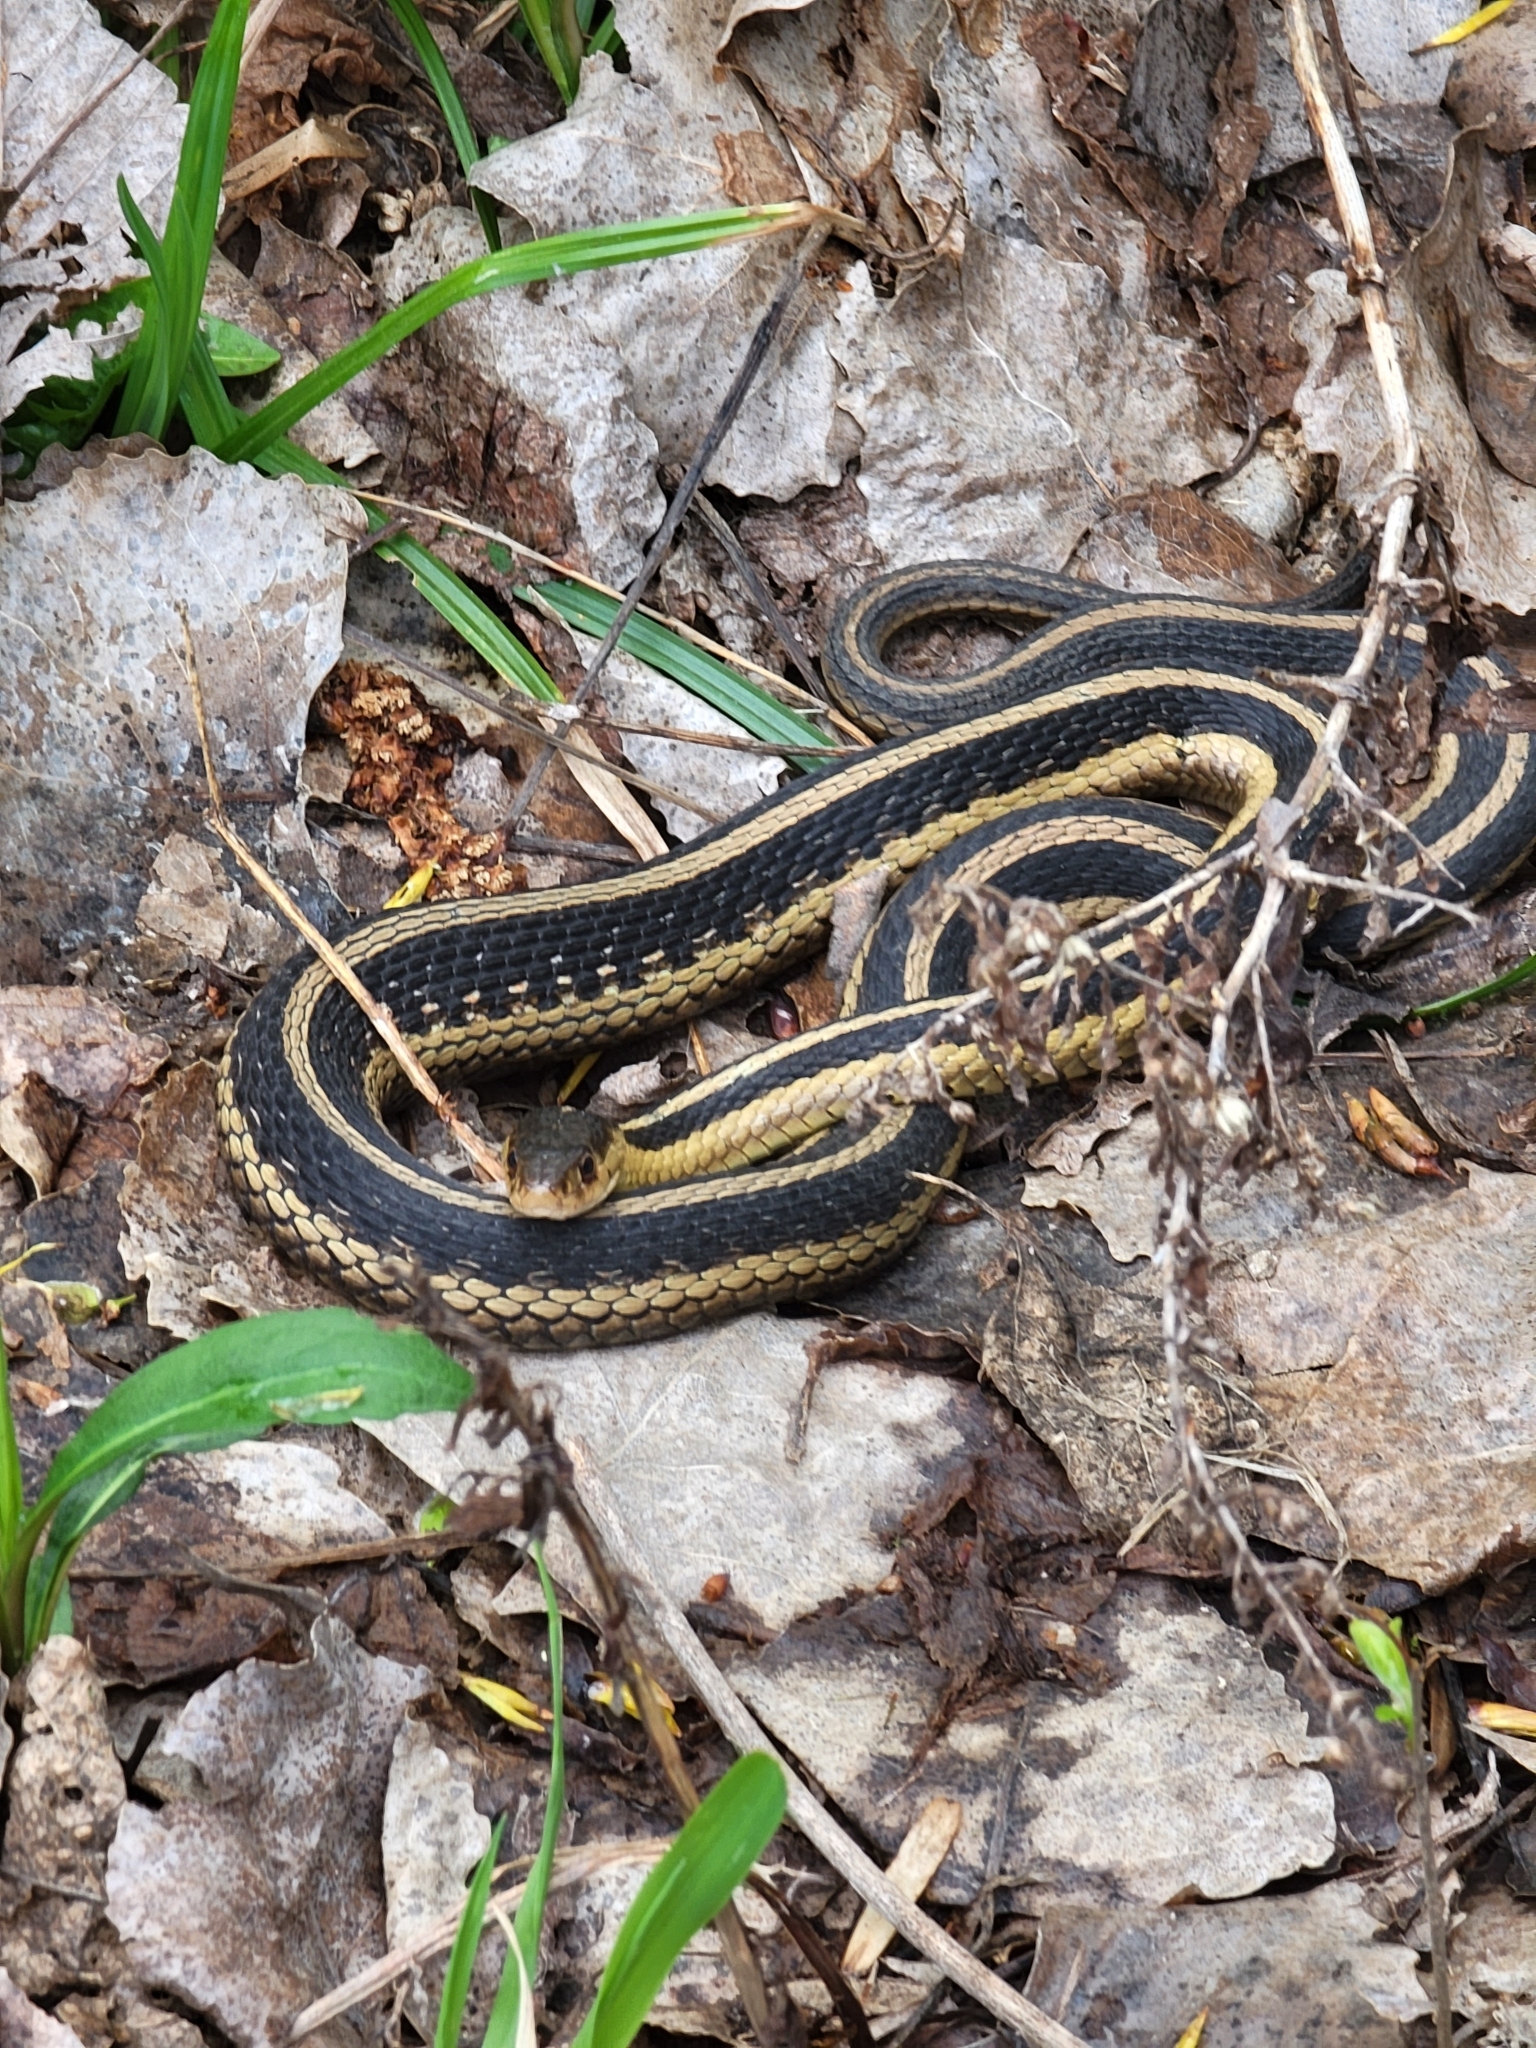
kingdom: Animalia
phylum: Chordata
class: Squamata
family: Colubridae
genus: Thamnophis
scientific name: Thamnophis sirtalis
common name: Common garter snake
